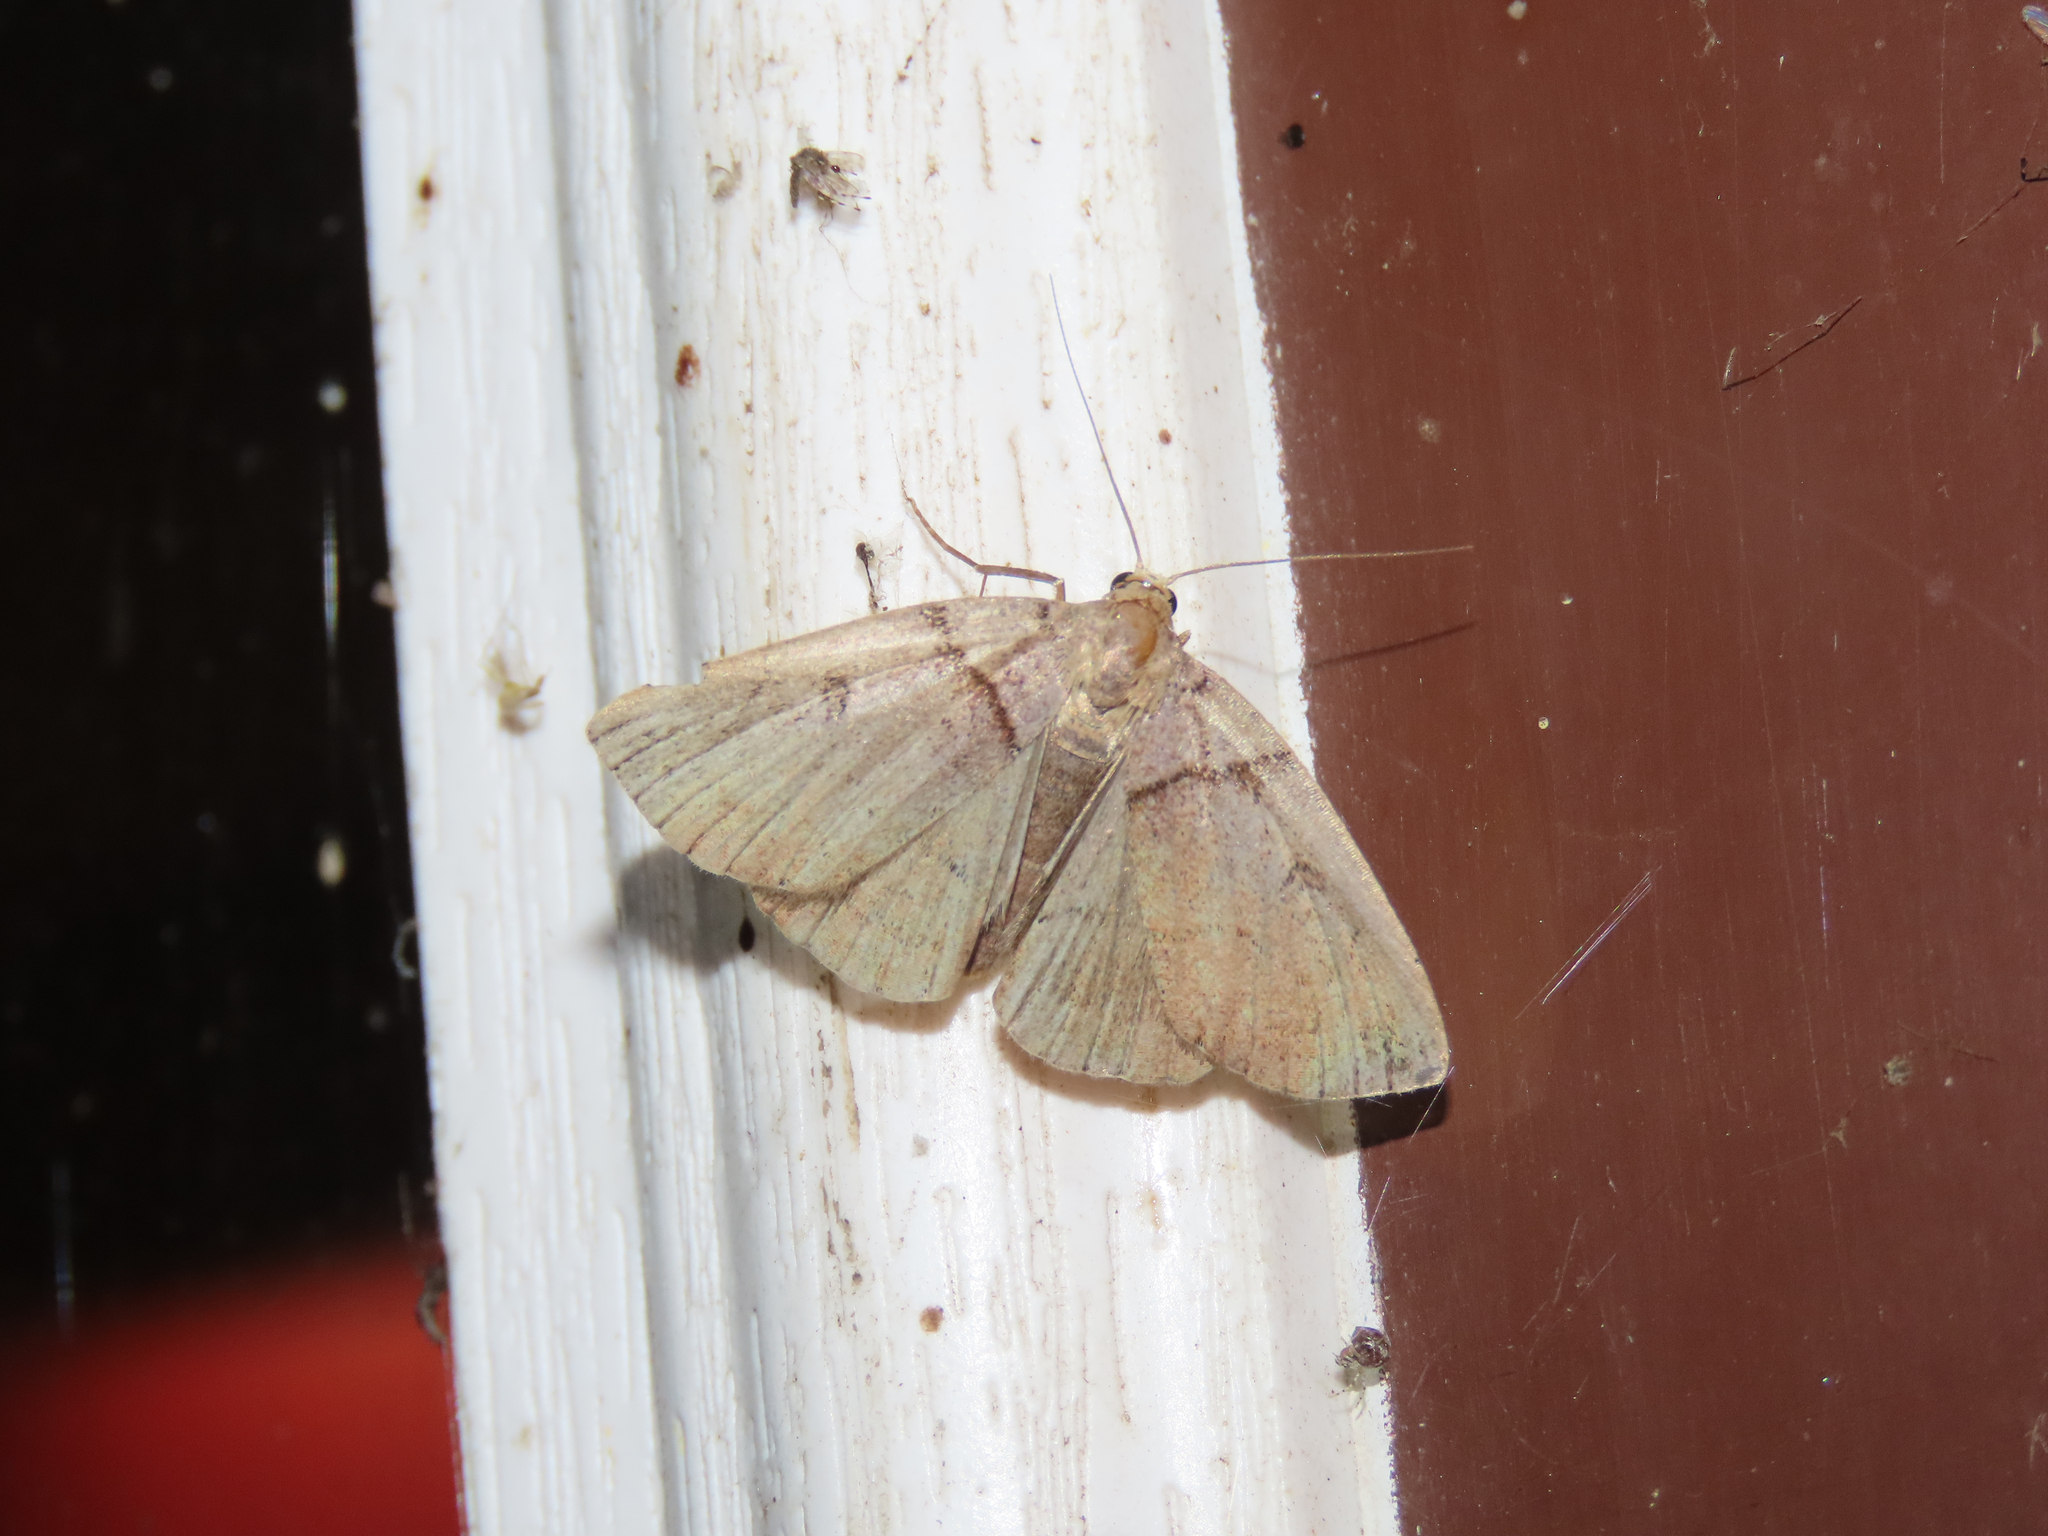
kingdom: Animalia
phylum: Arthropoda
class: Insecta
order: Lepidoptera
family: Erebidae
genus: Zanclognatha
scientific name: Zanclognatha laevigata
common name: Variable fan-foot
